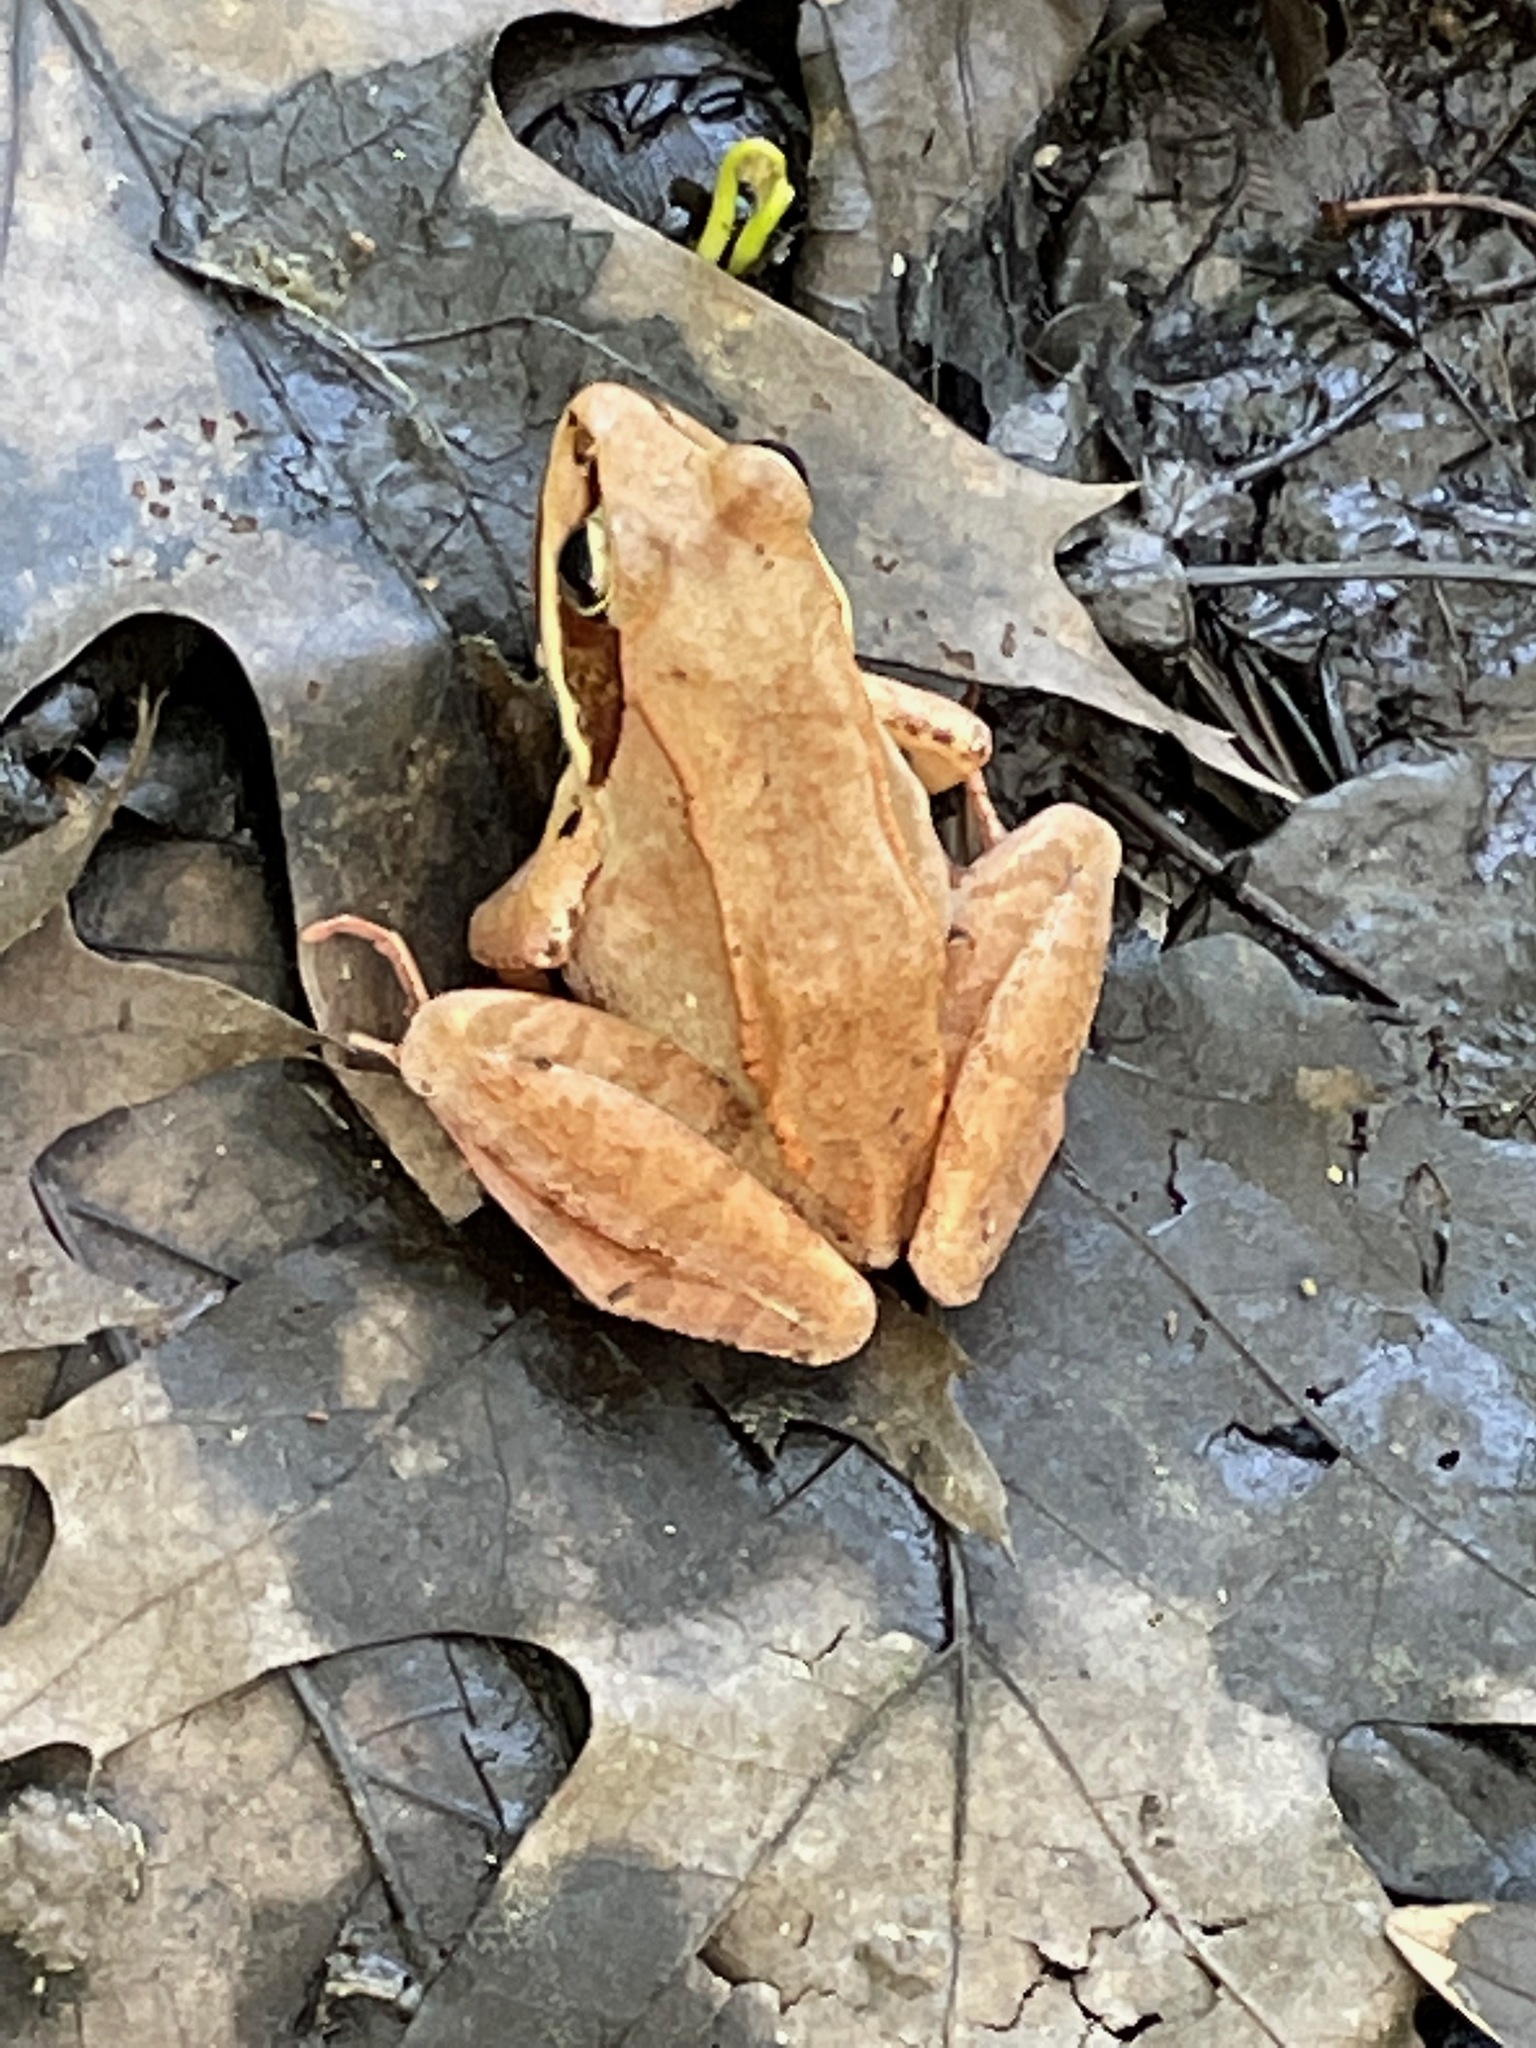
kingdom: Animalia
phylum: Chordata
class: Amphibia
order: Anura
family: Ranidae
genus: Lithobates
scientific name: Lithobates sylvaticus
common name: Wood frog
